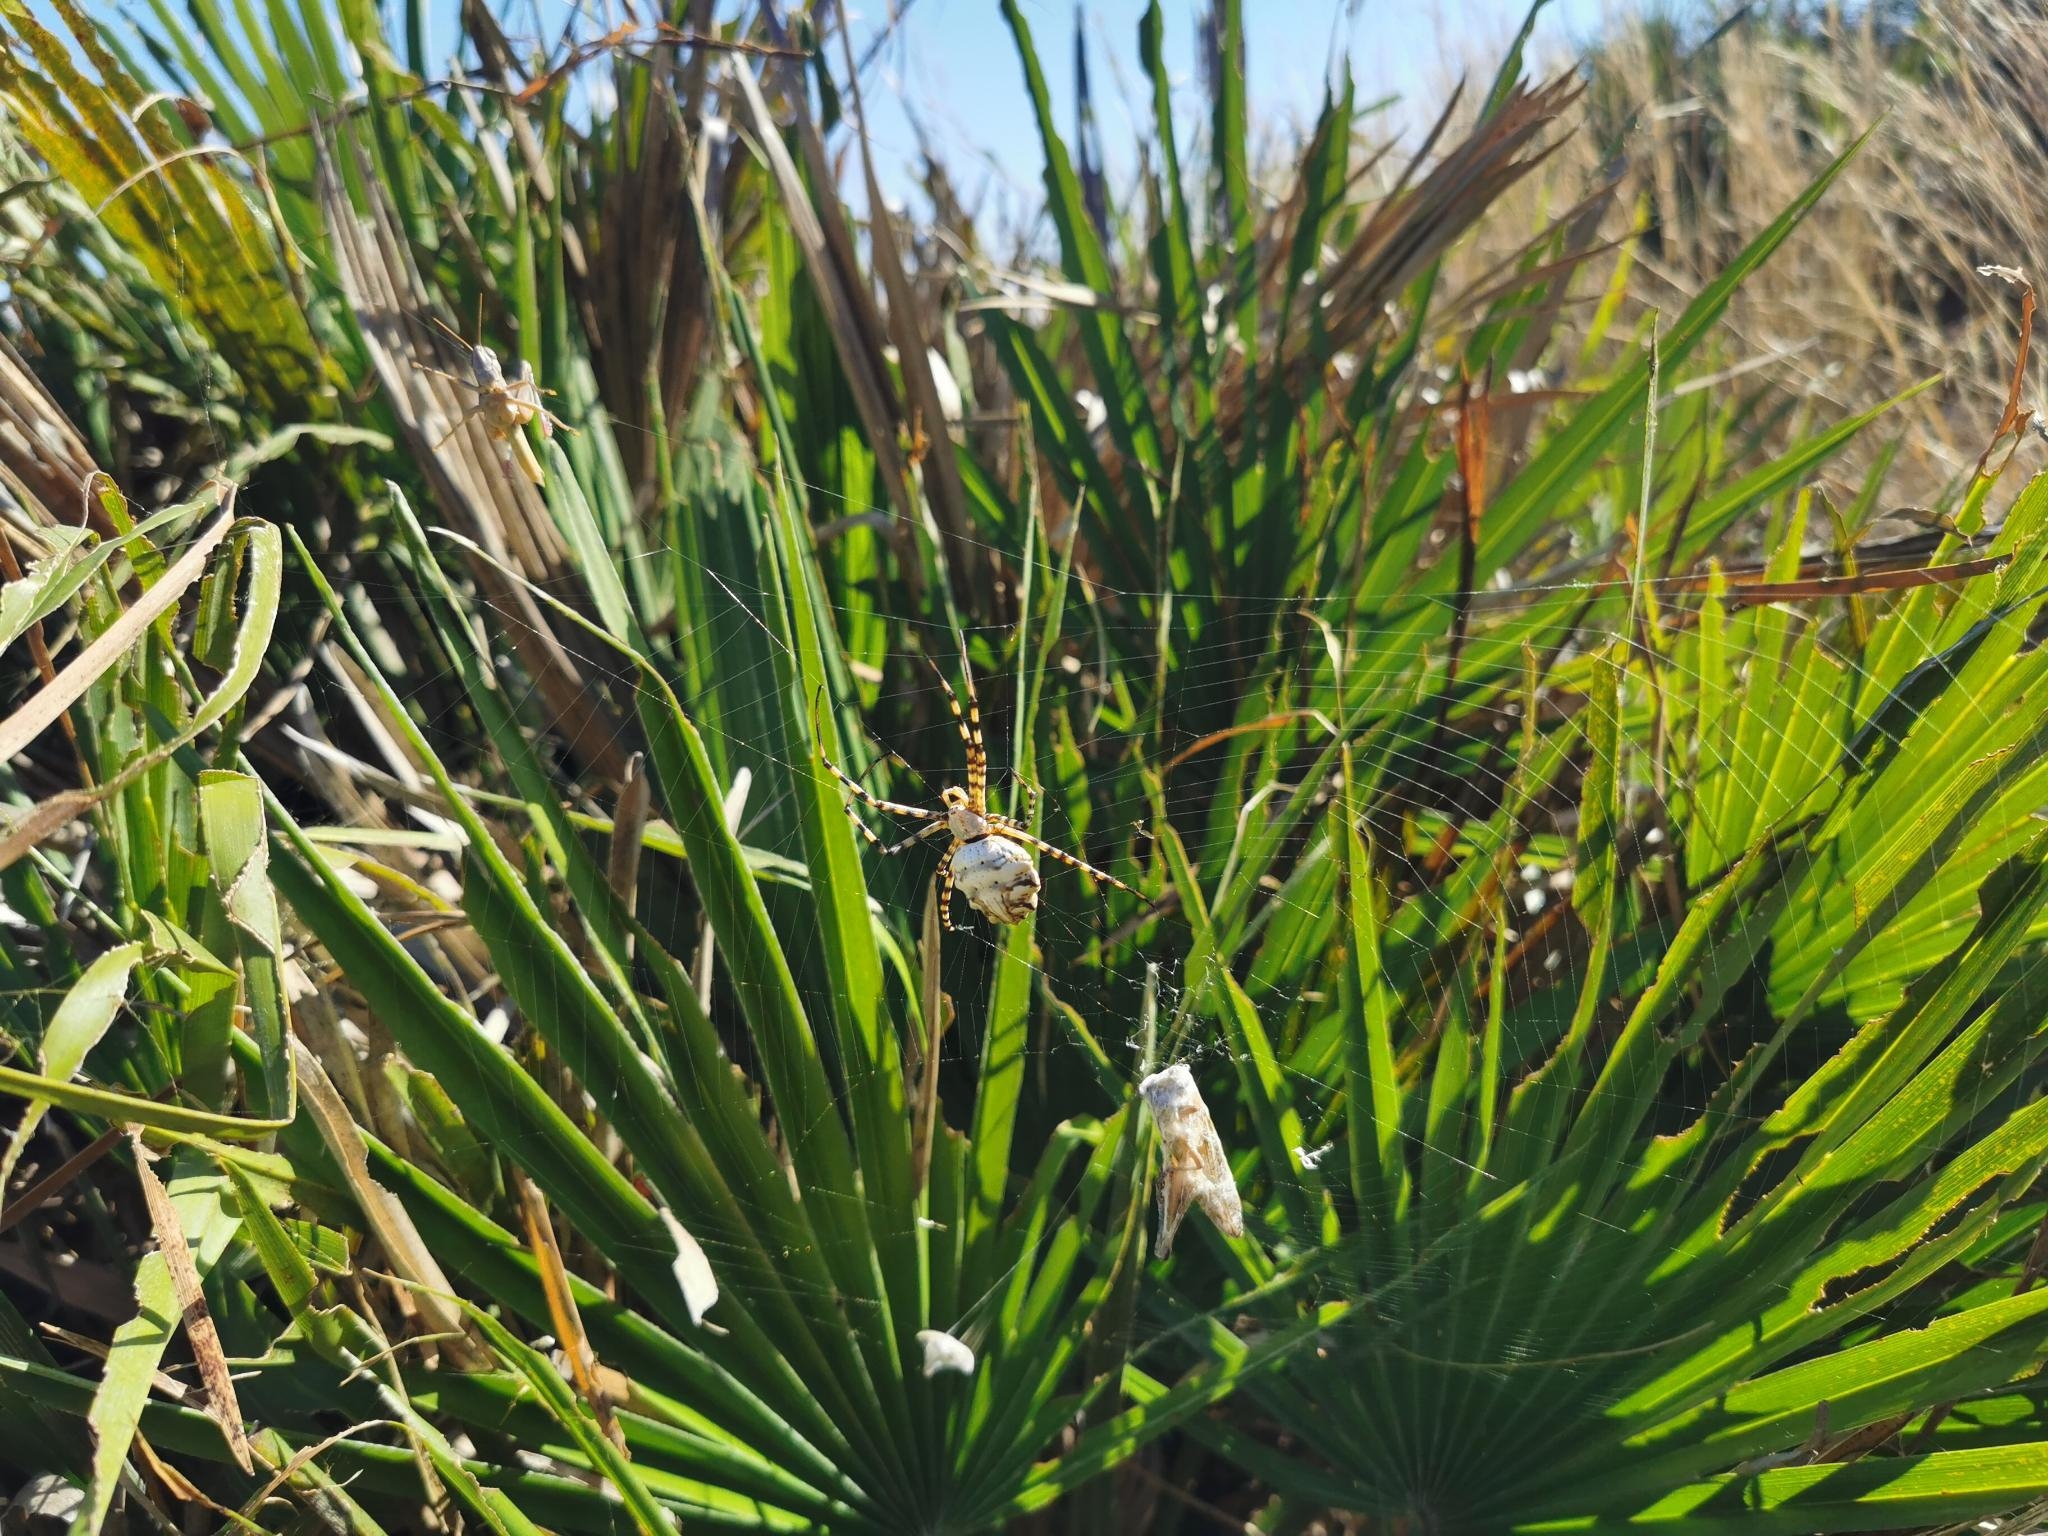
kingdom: Animalia
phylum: Arthropoda
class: Arachnida
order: Araneae
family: Araneidae
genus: Argiope
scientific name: Argiope lobata
